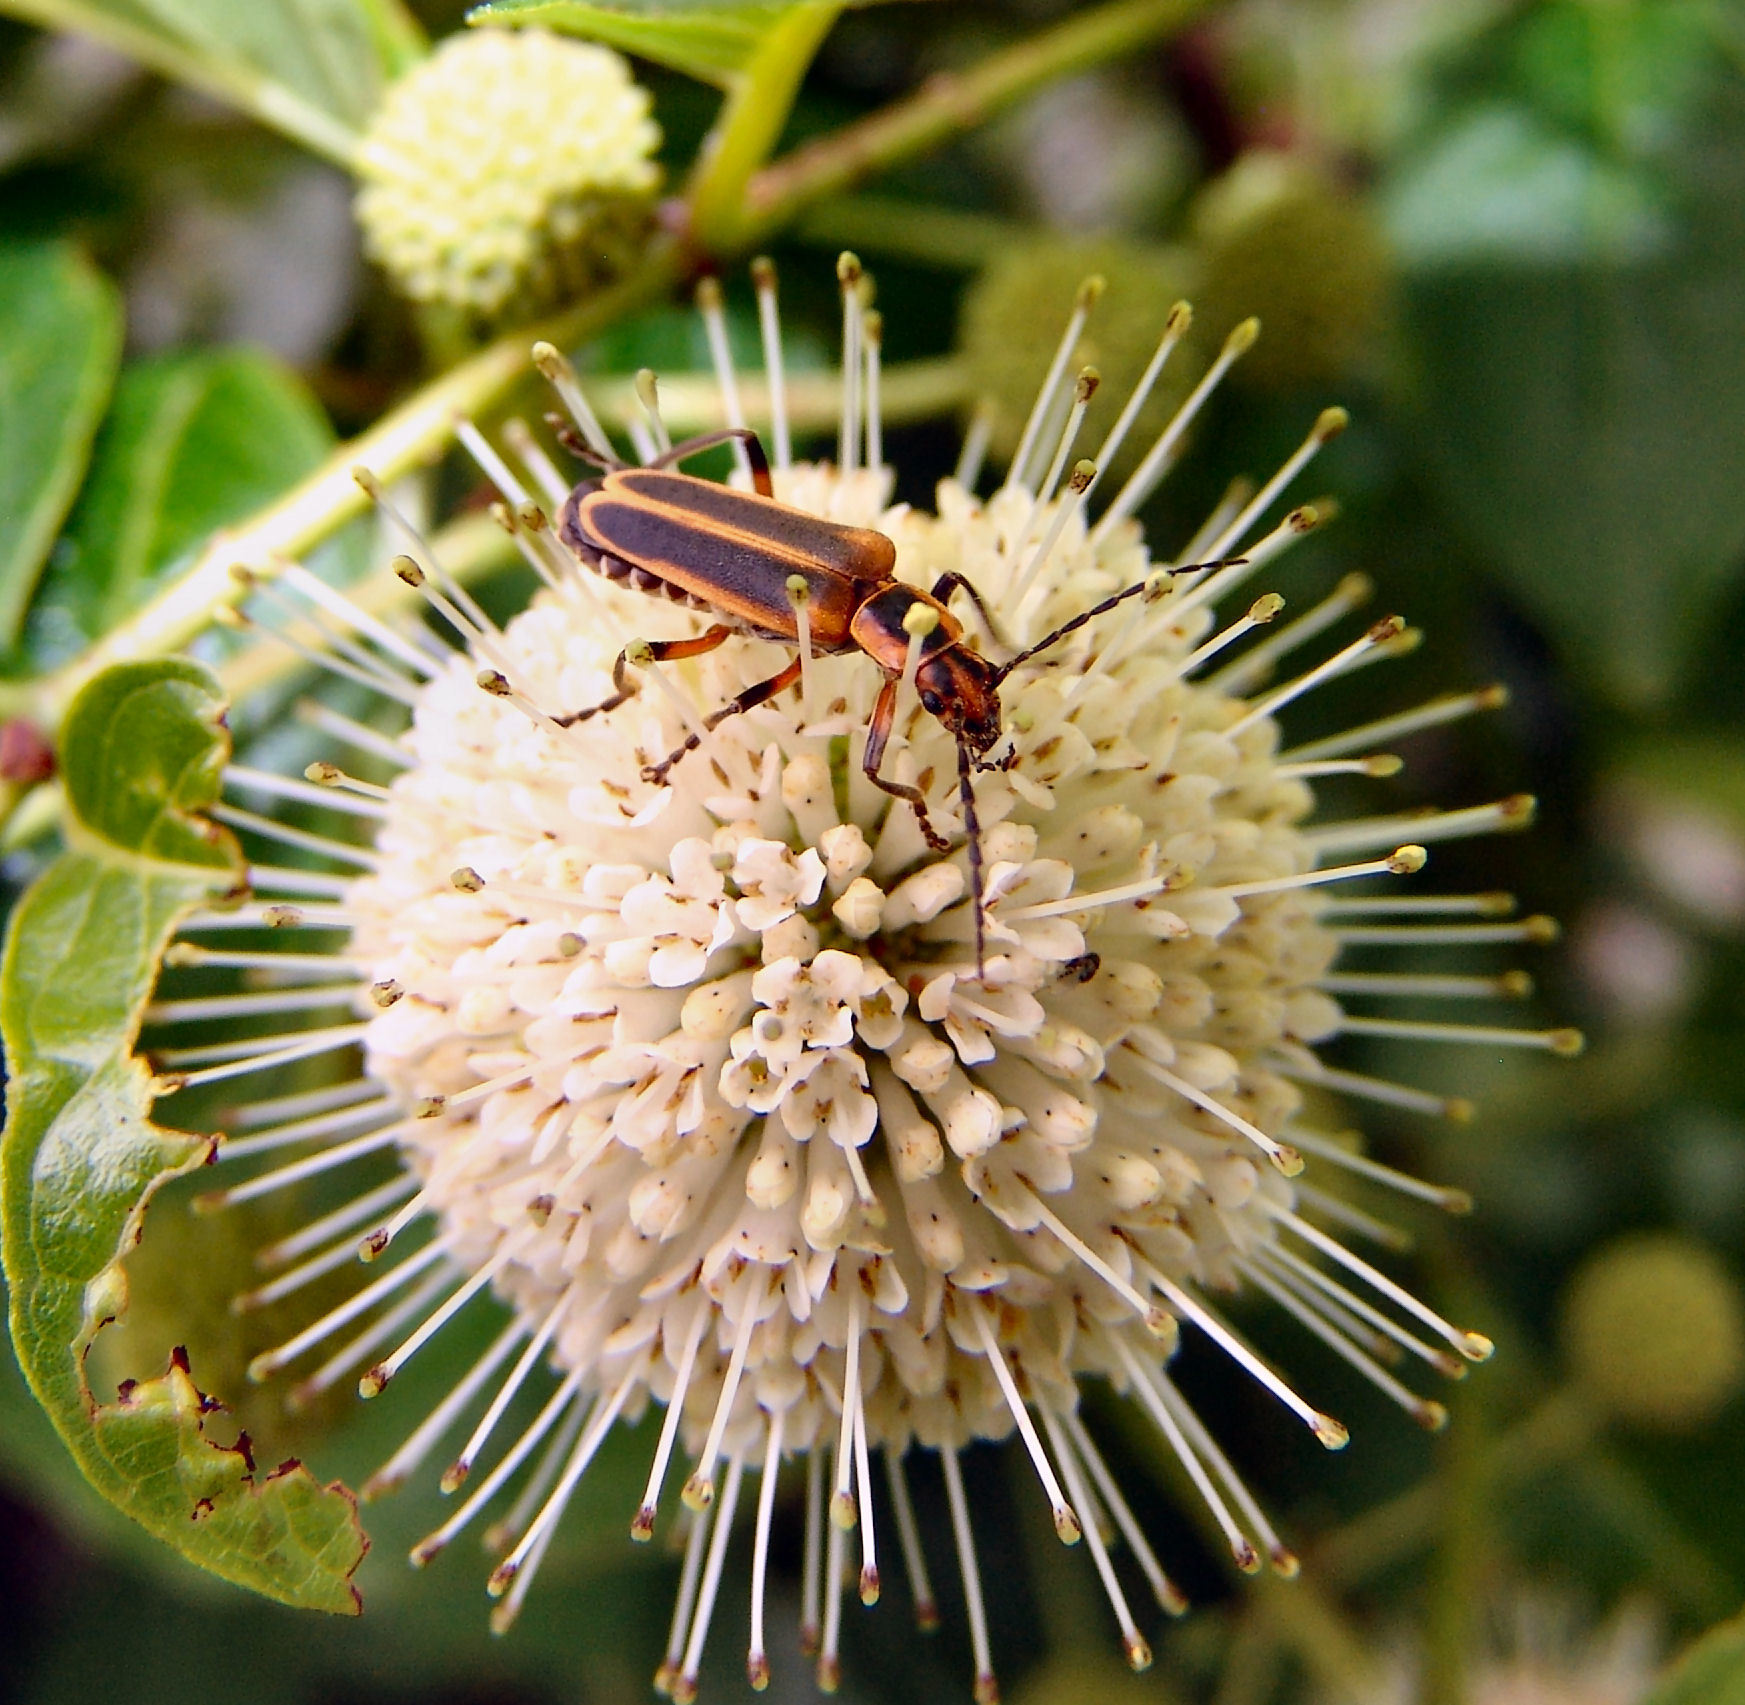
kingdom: Animalia
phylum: Arthropoda
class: Insecta
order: Coleoptera
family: Cantharidae
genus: Chauliognathus
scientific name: Chauliognathus marginatus
